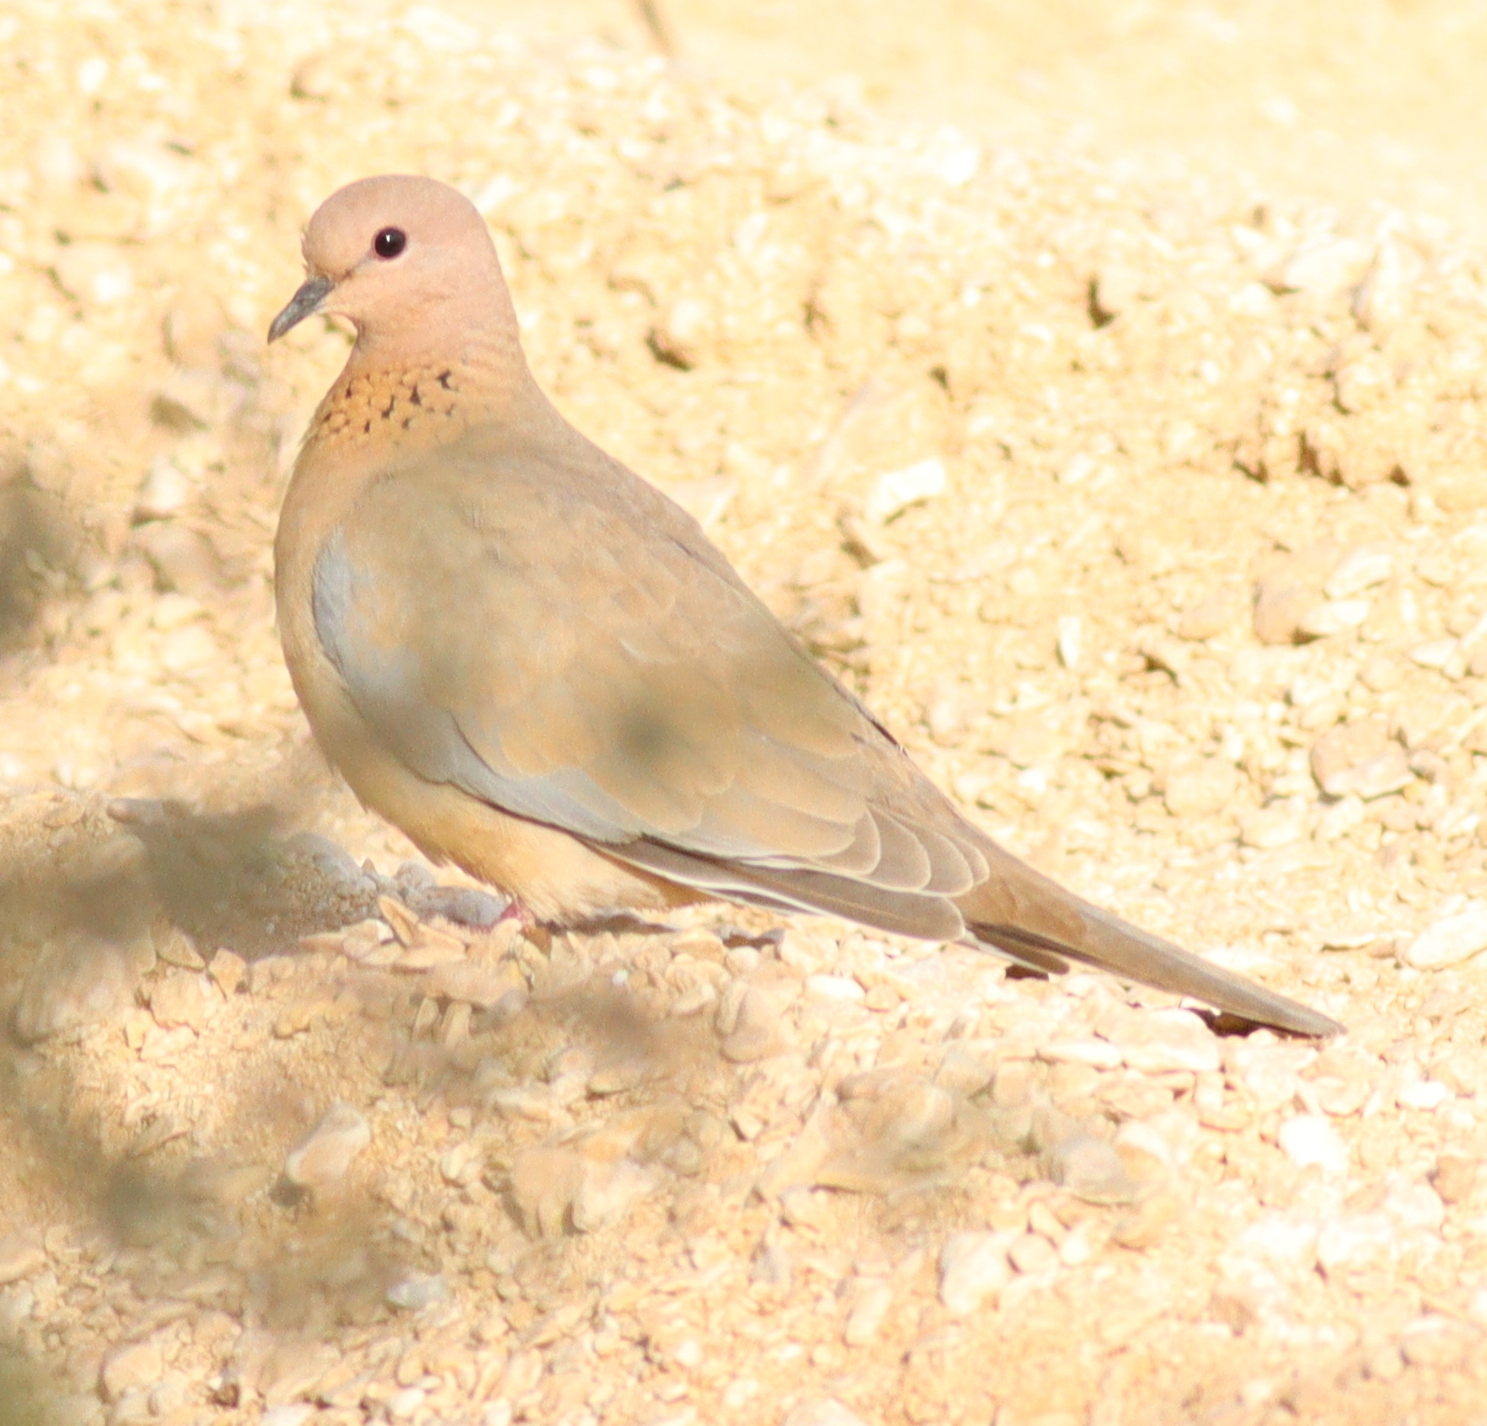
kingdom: Animalia
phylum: Chordata
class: Aves
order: Columbiformes
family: Columbidae
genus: Spilopelia
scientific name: Spilopelia senegalensis
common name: Laughing dove
